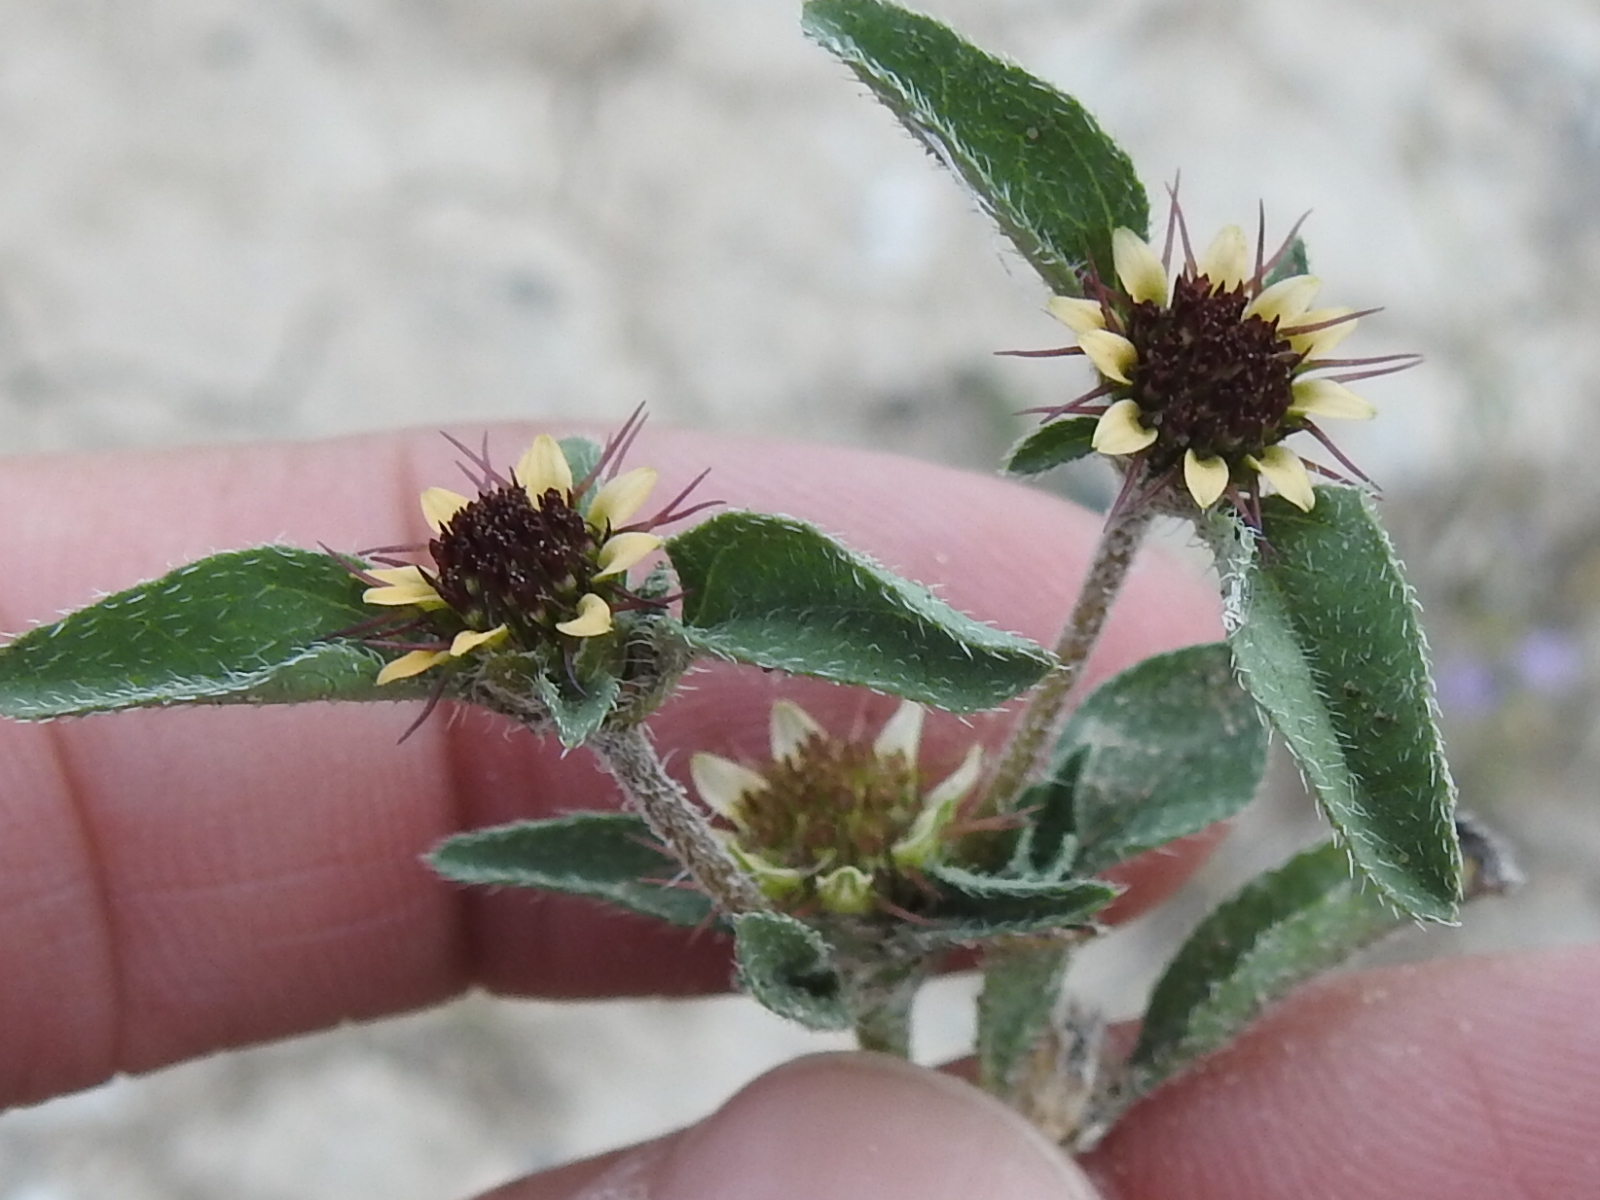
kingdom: Plantae
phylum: Tracheophyta
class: Magnoliopsida
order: Asterales
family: Asteraceae
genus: Sanvitalia
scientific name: Sanvitalia ocymoides
